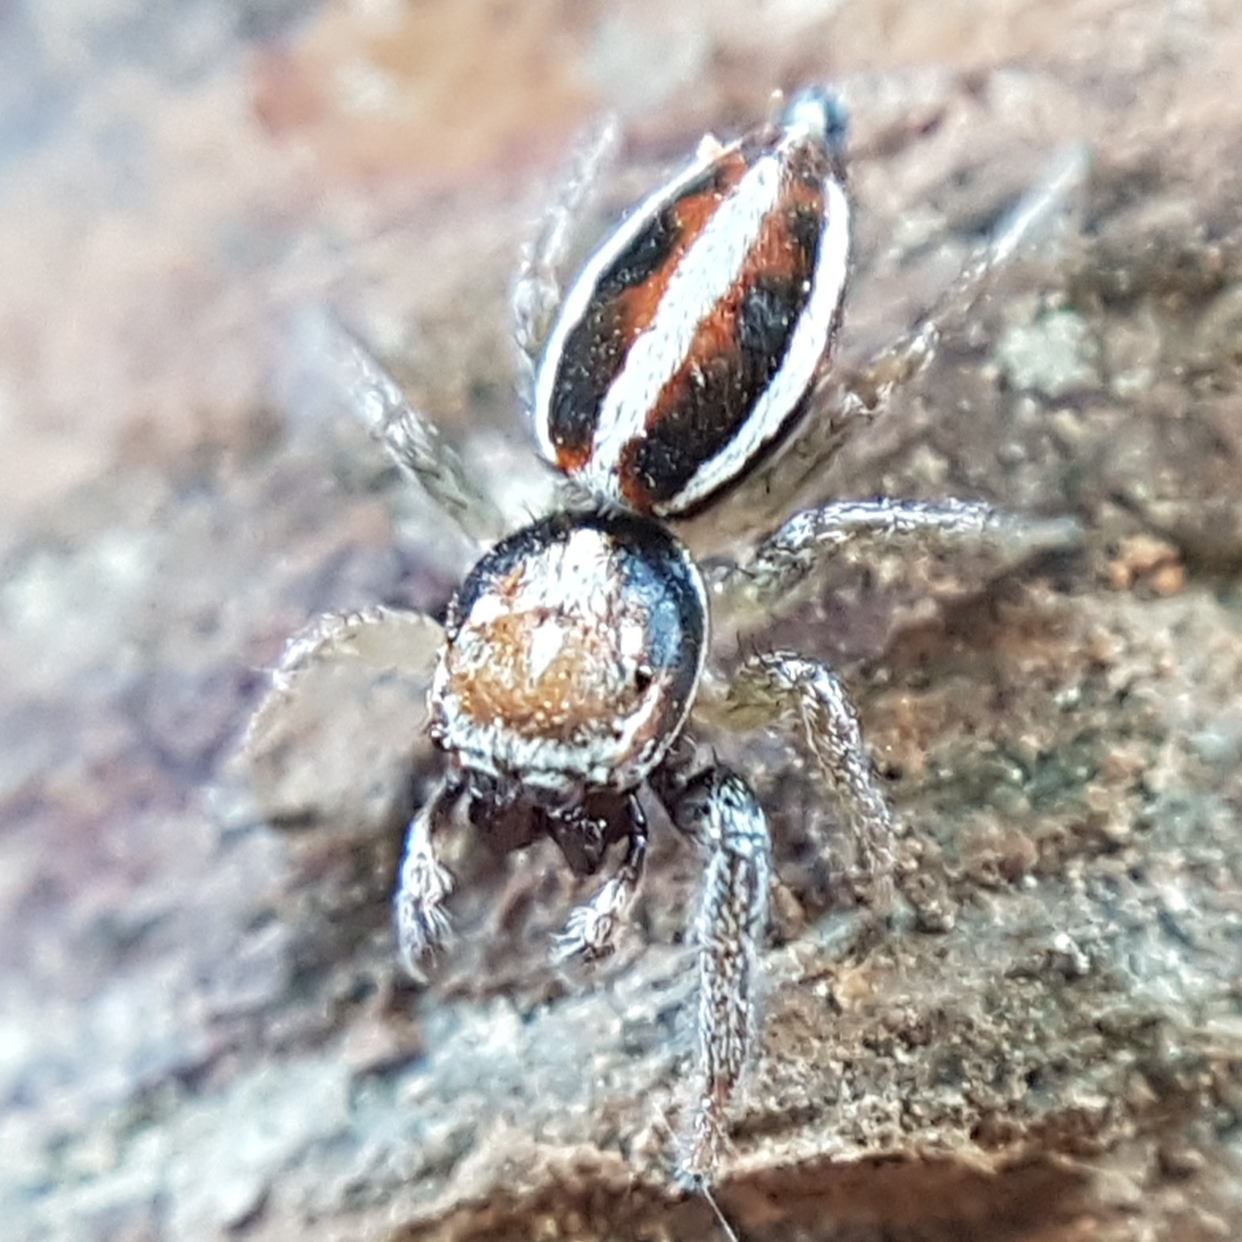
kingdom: Animalia
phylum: Arthropoda
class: Arachnida
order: Araneae
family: Salticidae
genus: Icius
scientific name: Icius subinermis
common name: Jumping spider
